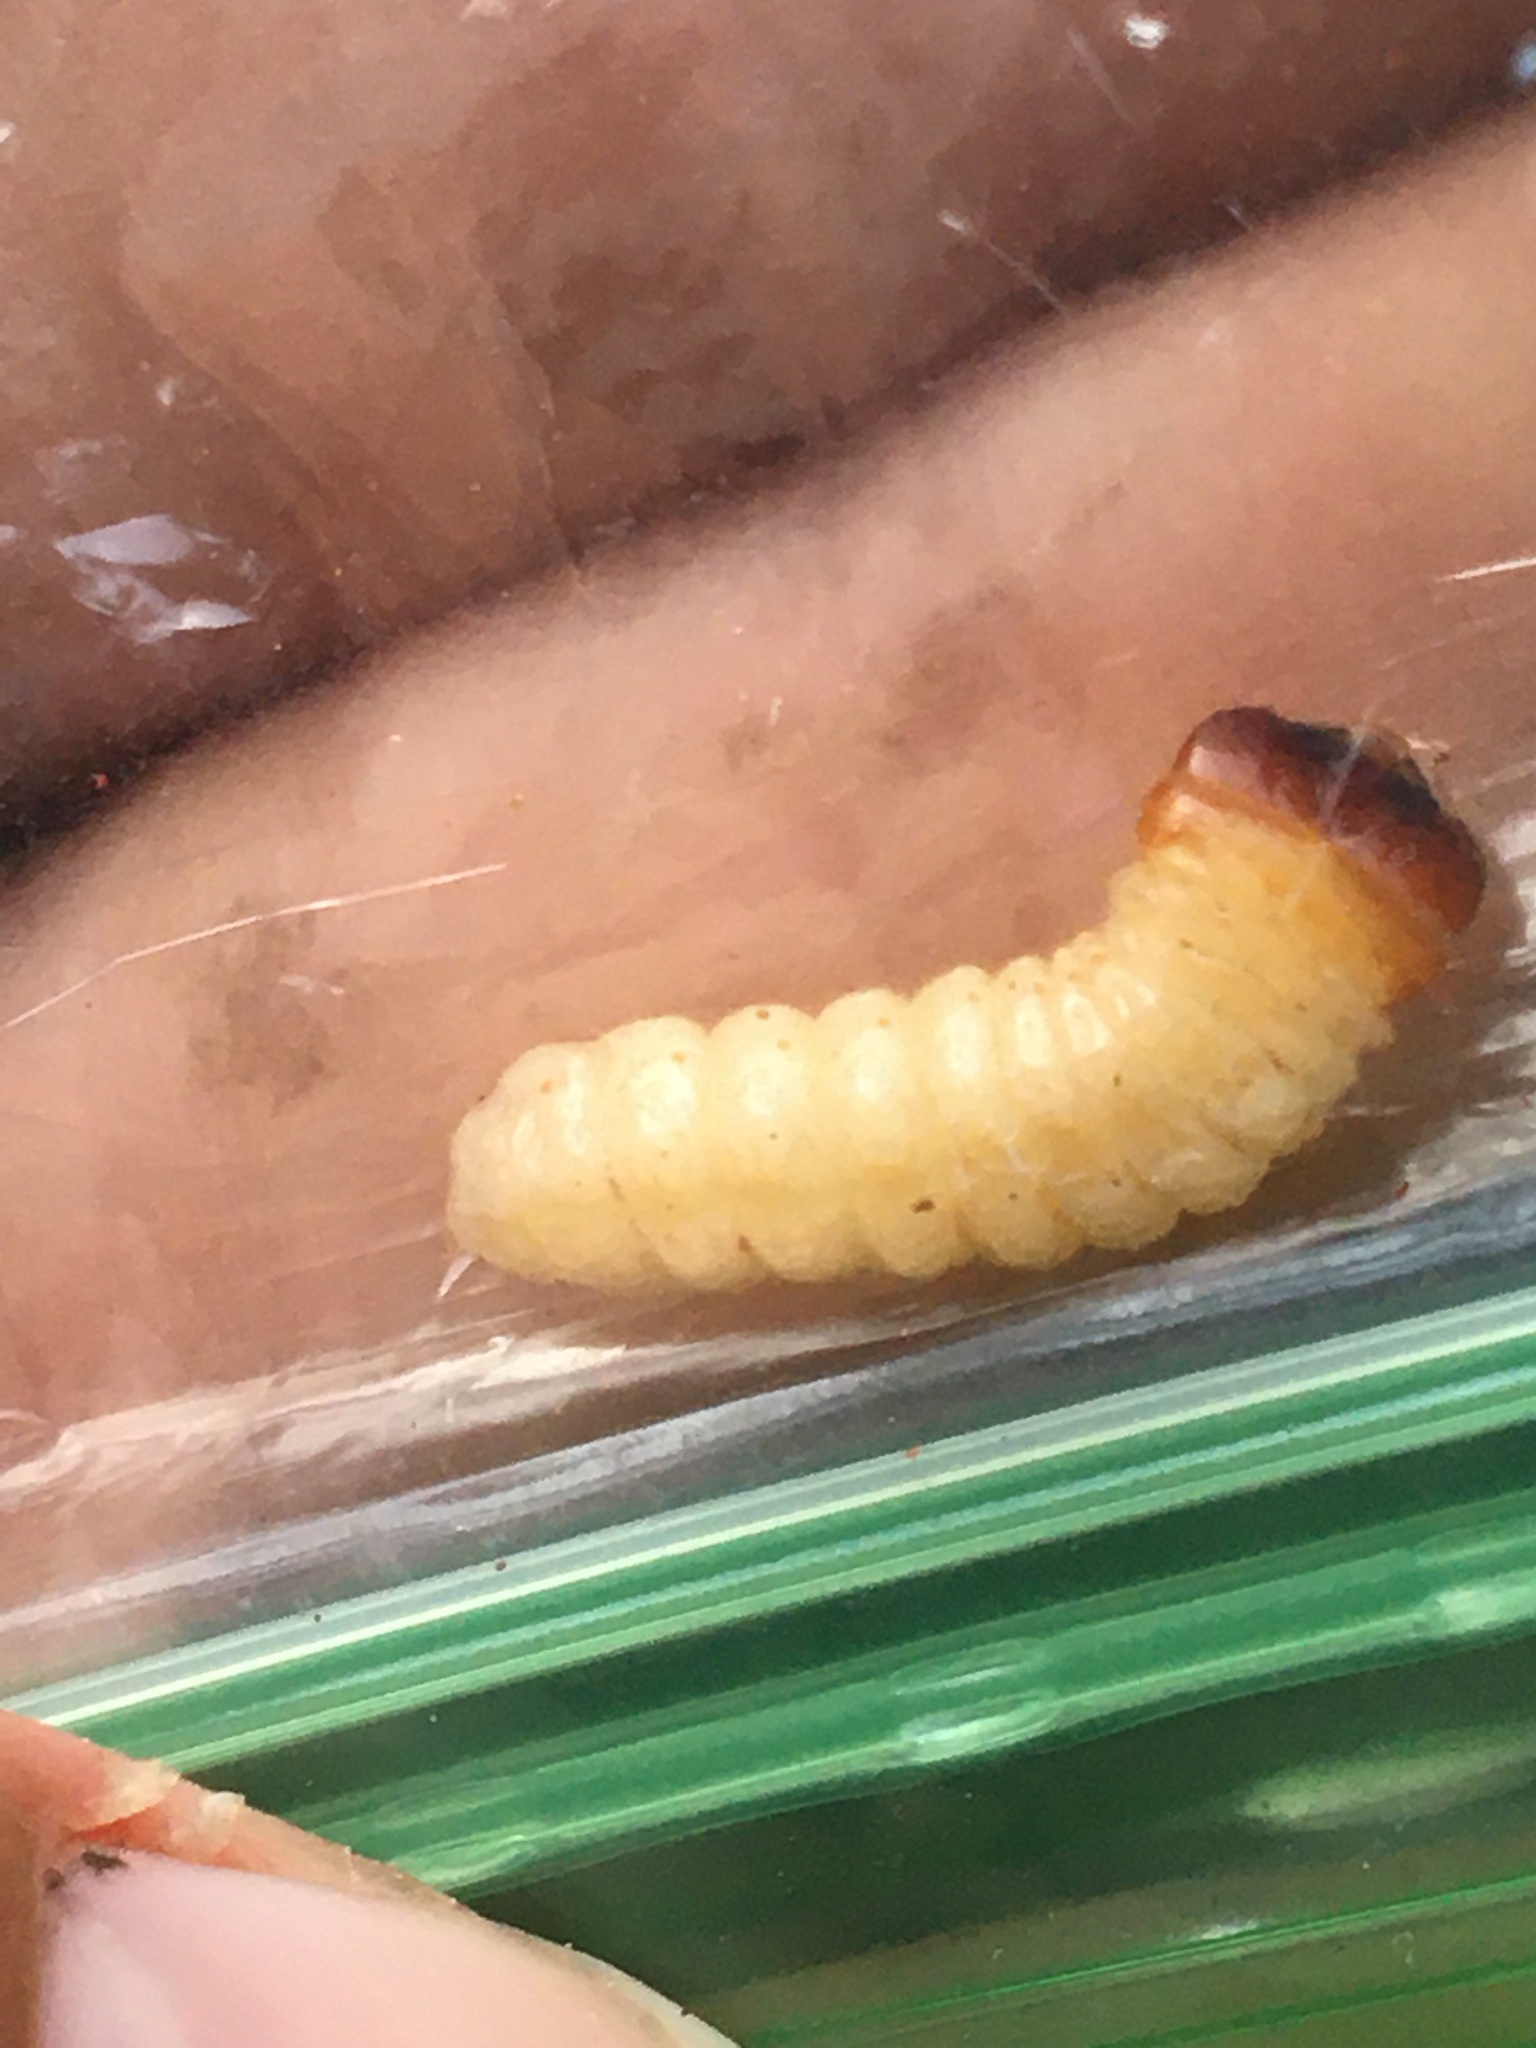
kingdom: Animalia
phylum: Arthropoda
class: Insecta
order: Coleoptera
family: Cerambycidae
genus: Rhagium
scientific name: Rhagium inquisitor
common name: Ribbed pine borer
